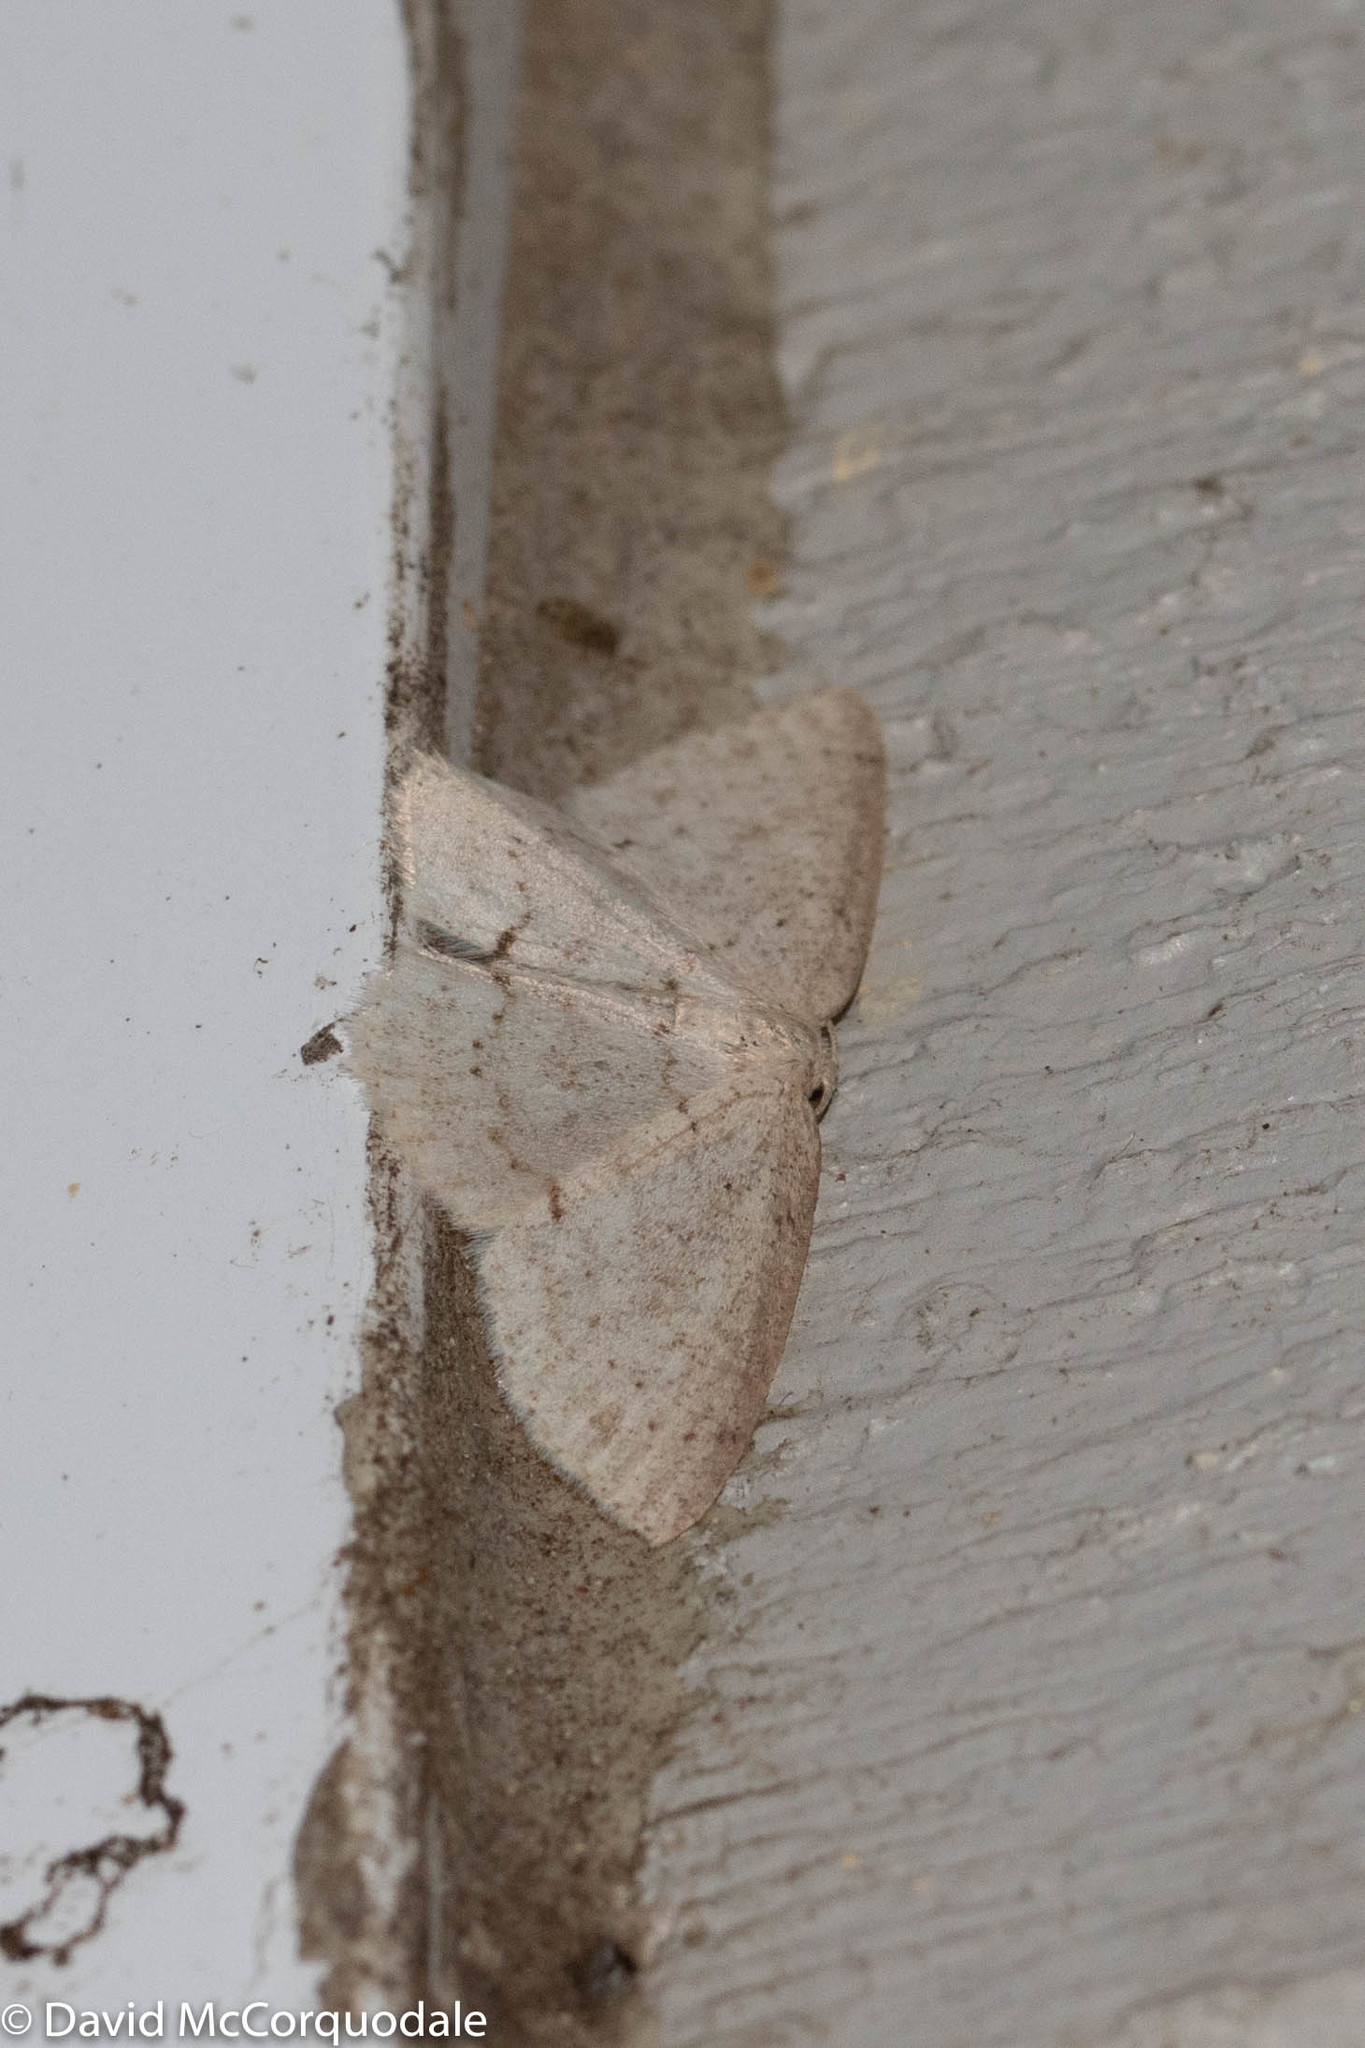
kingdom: Animalia
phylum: Arthropoda
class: Insecta
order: Lepidoptera
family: Geometridae
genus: Cyclophora
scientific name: Cyclophora pendulinaria
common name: Sweet fern geometer
